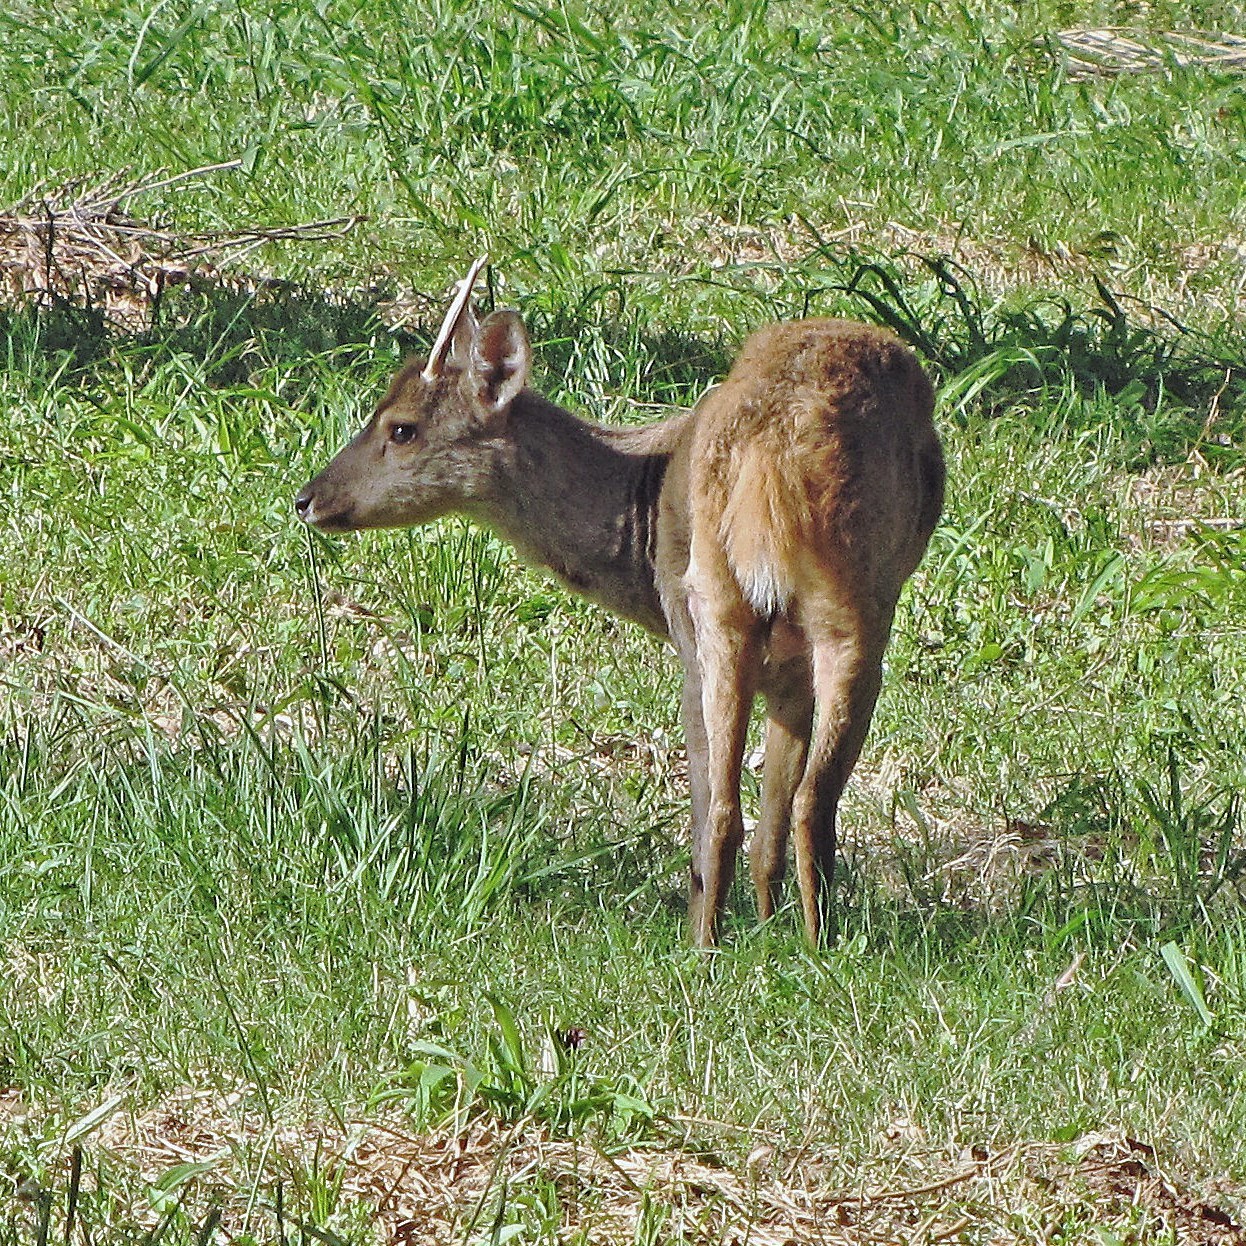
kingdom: Animalia
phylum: Chordata
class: Mammalia
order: Artiodactyla
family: Cervidae
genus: Mazama
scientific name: Mazama gouazoubira
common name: Gray brocket
